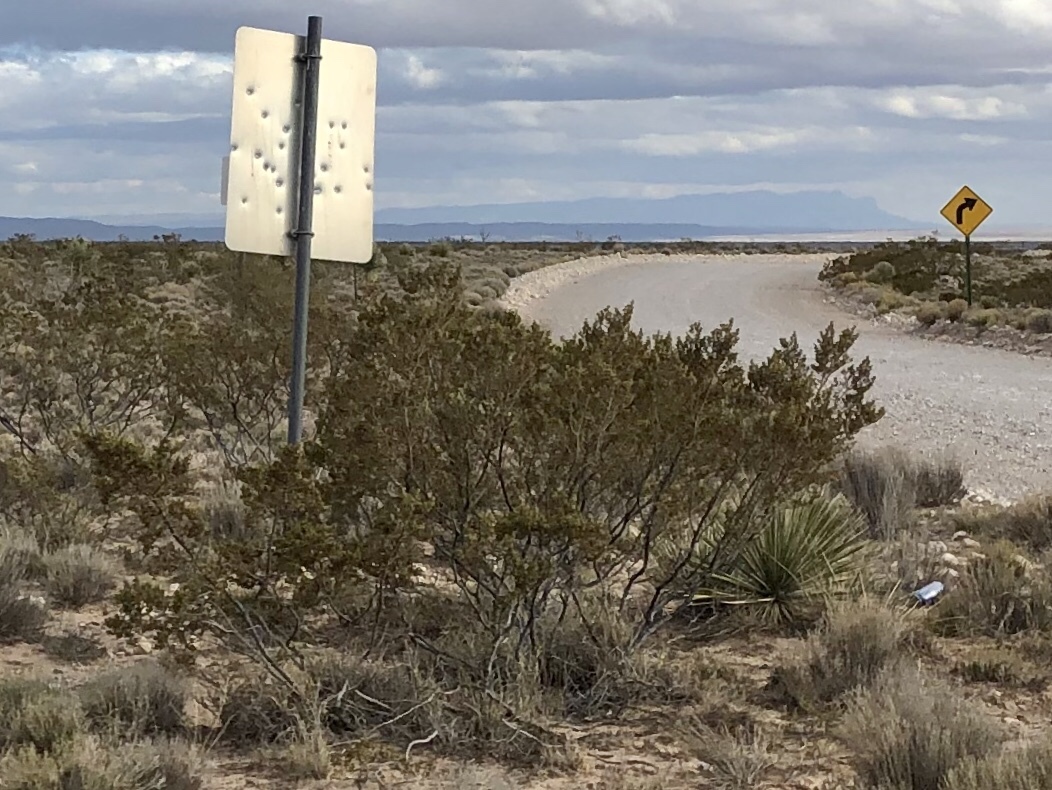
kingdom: Plantae
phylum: Tracheophyta
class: Magnoliopsida
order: Zygophyllales
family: Zygophyllaceae
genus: Larrea
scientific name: Larrea tridentata
